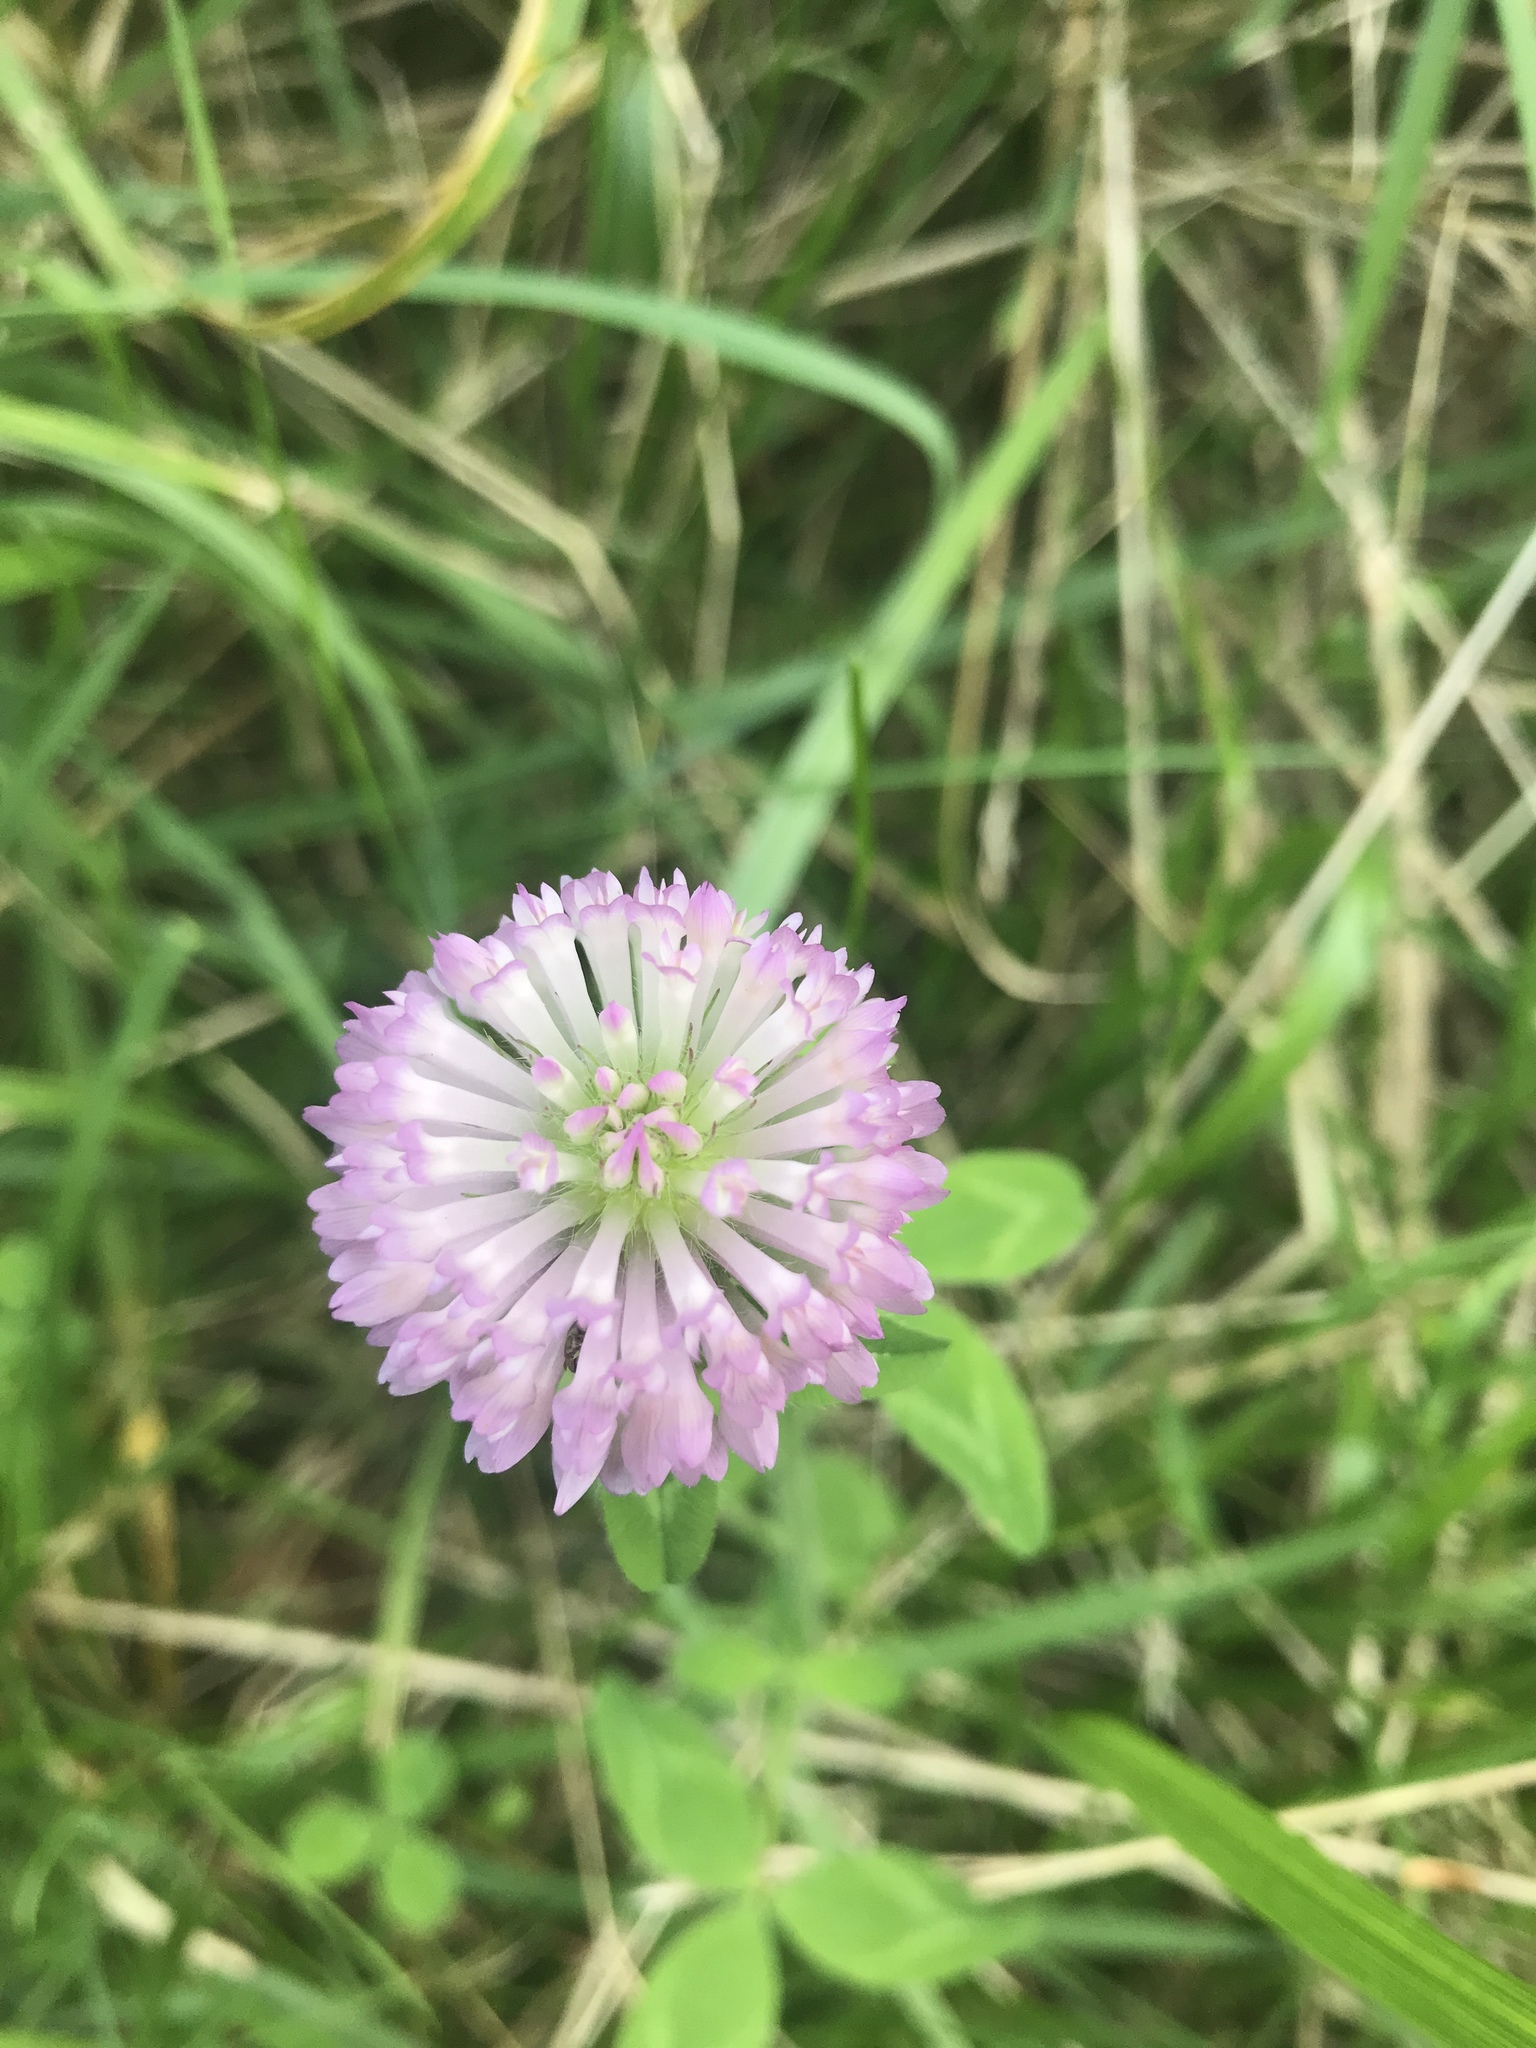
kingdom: Plantae
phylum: Tracheophyta
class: Magnoliopsida
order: Fabales
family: Fabaceae
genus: Trifolium
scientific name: Trifolium pratense
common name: Red clover
